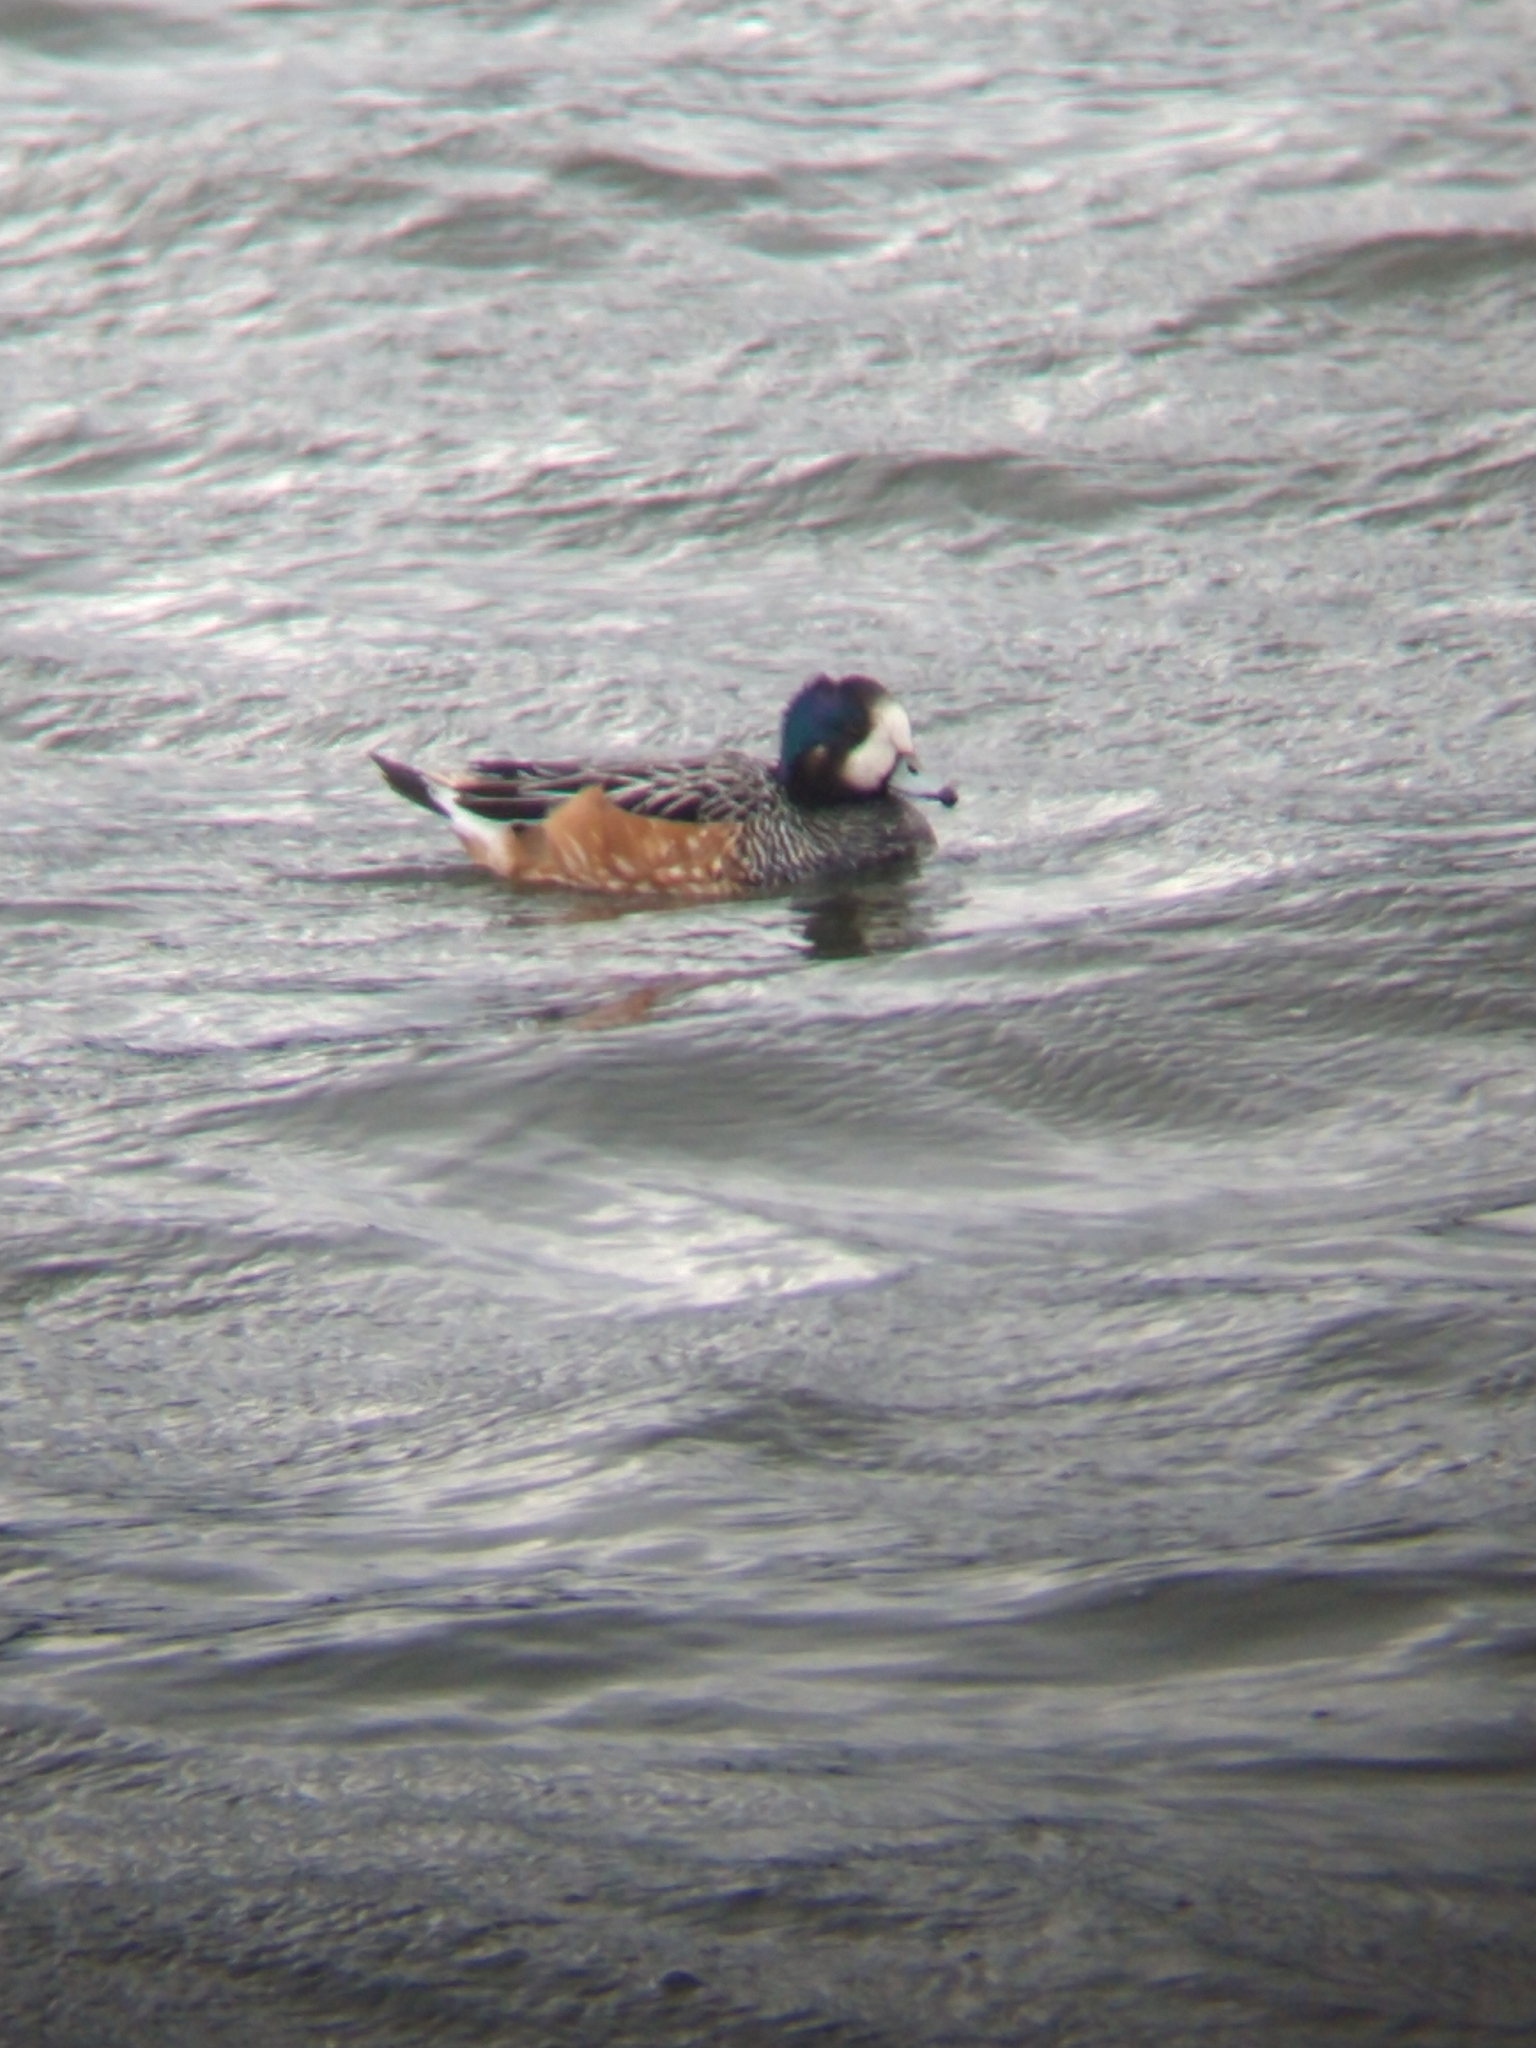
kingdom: Animalia
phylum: Chordata
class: Aves
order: Anseriformes
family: Anatidae
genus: Mareca
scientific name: Mareca sibilatrix
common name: Chiloe wigeon
